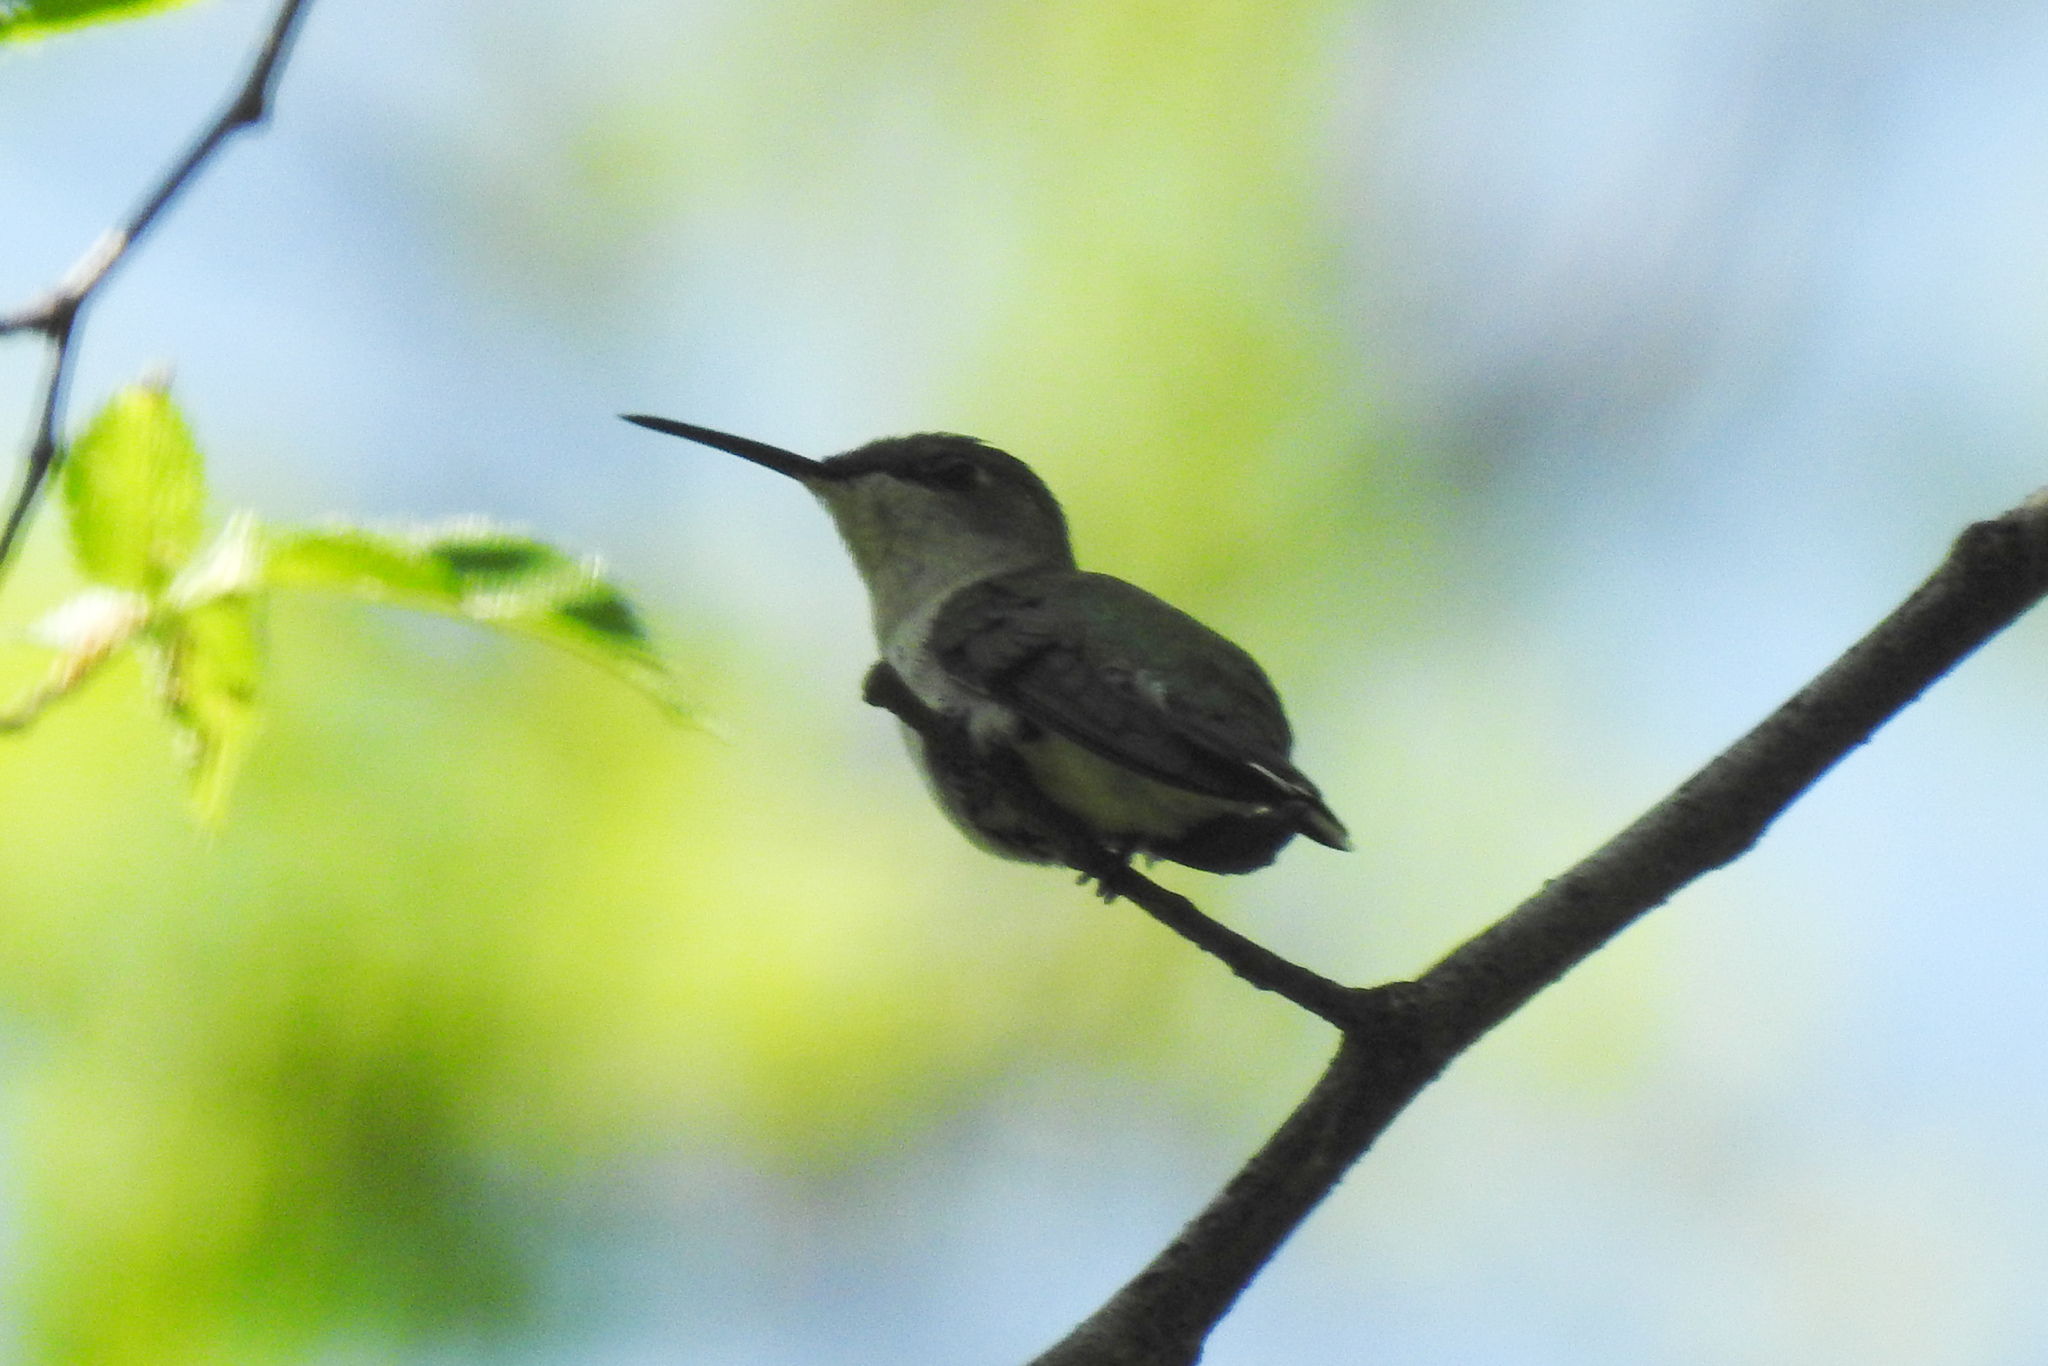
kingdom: Animalia
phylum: Chordata
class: Aves
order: Apodiformes
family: Trochilidae
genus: Archilochus
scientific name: Archilochus colubris
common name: Ruby-throated hummingbird
